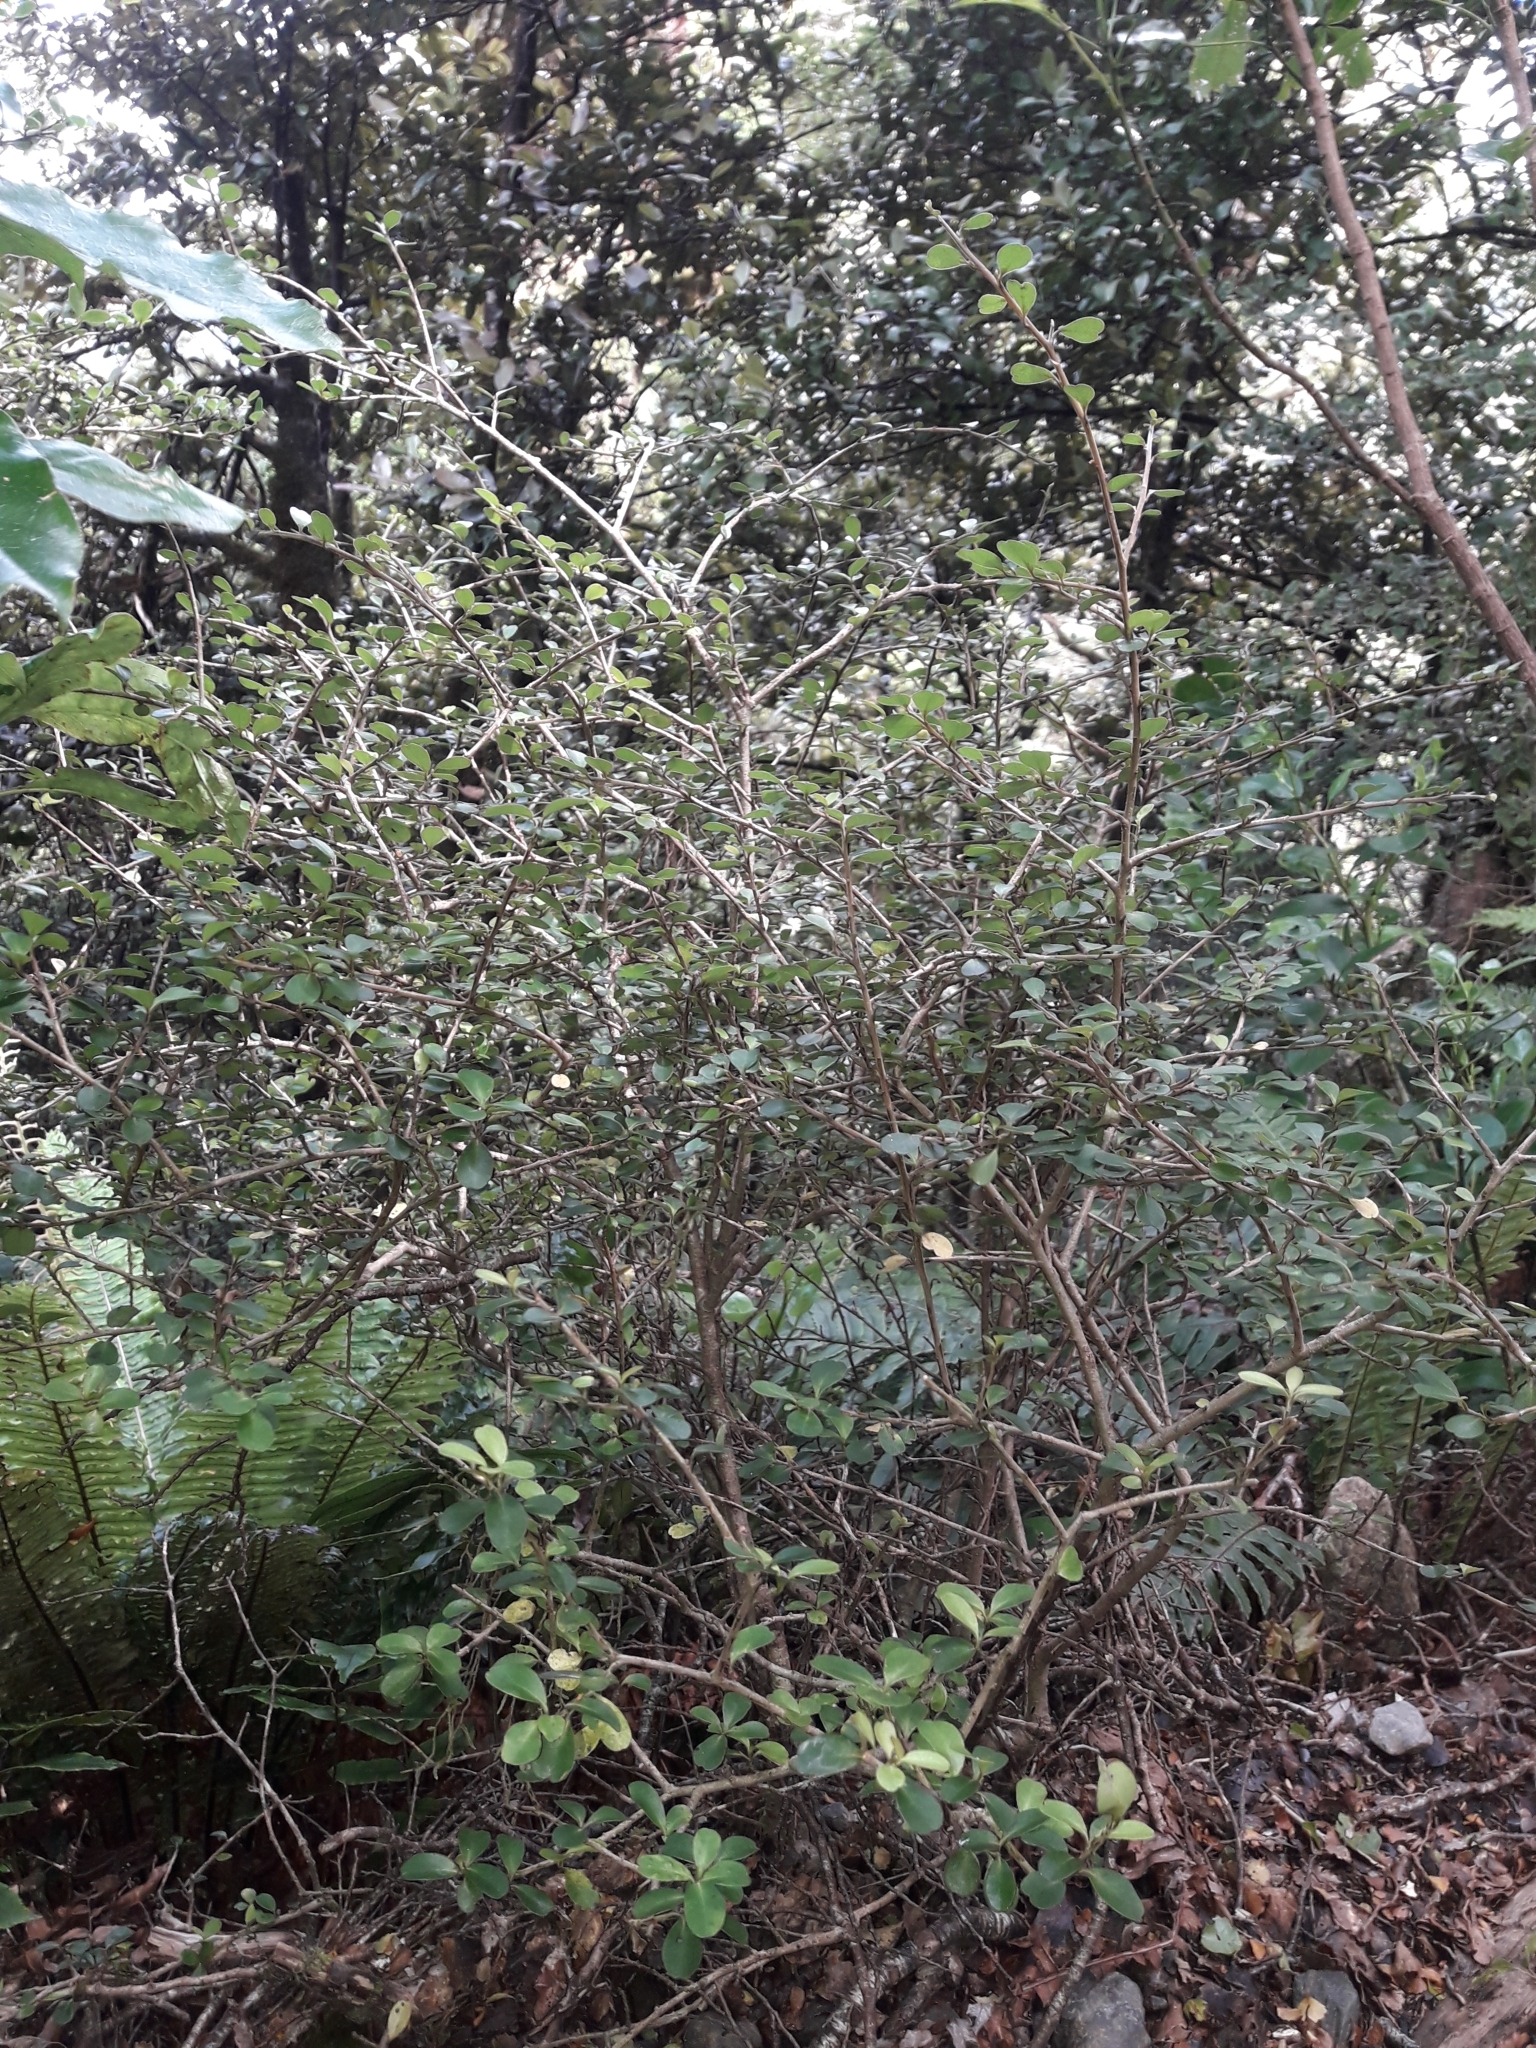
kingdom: Plantae
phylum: Tracheophyta
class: Magnoliopsida
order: Ericales
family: Primulaceae
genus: Myrsine
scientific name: Myrsine umbricola
